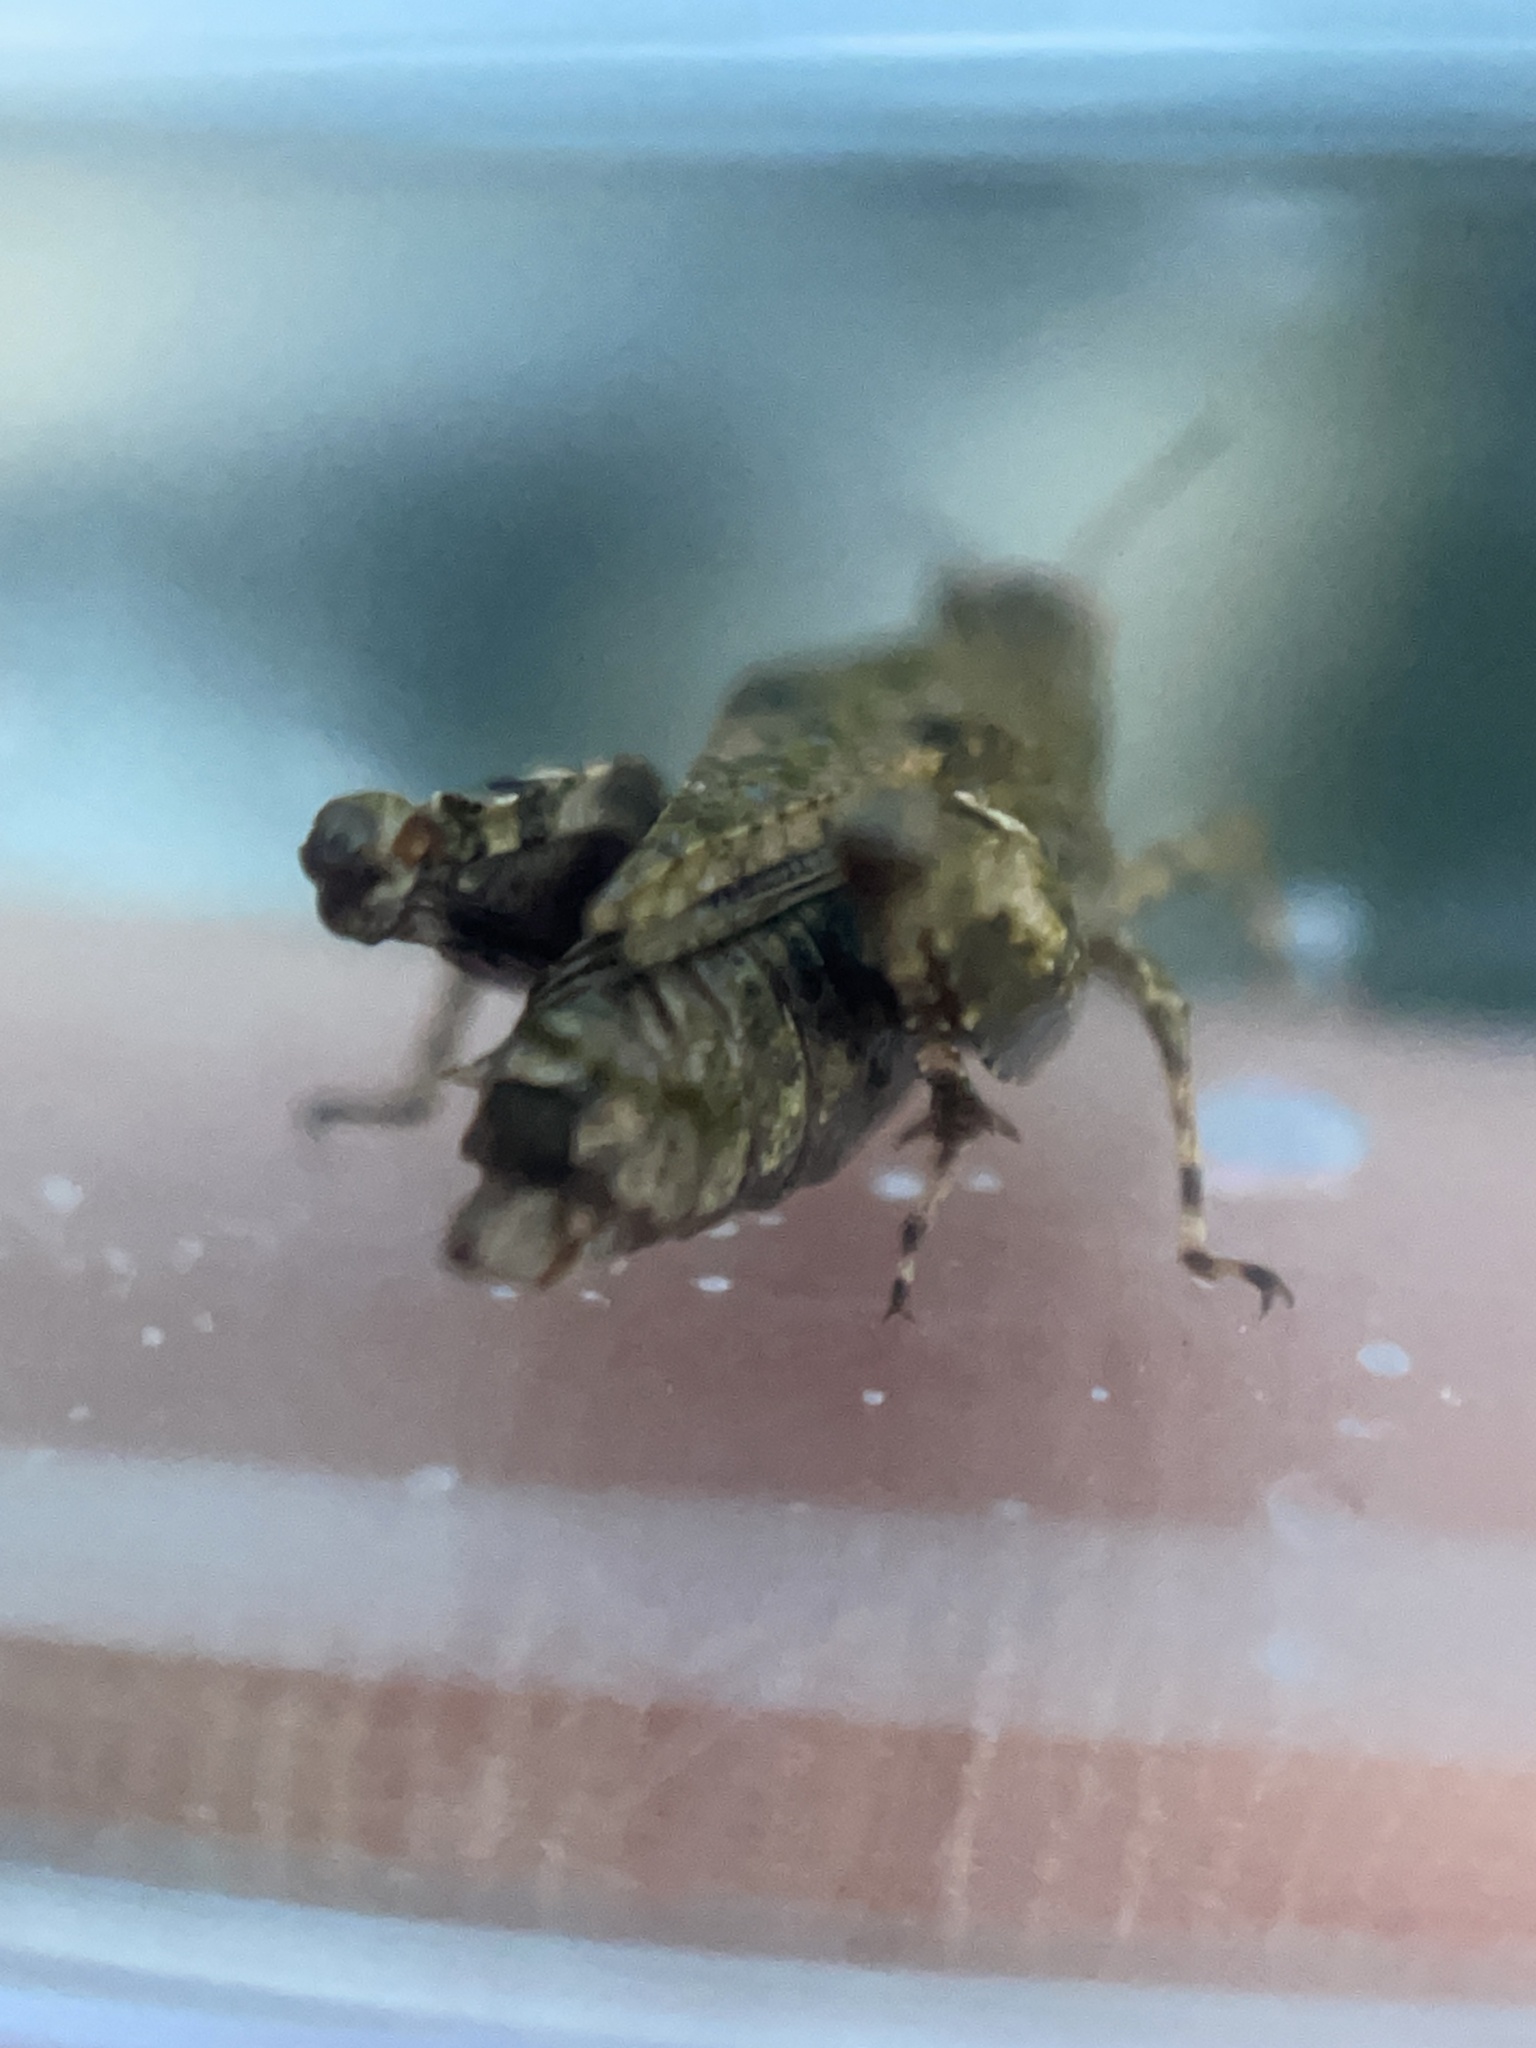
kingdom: Animalia
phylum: Arthropoda
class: Insecta
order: Orthoptera
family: Tetrigidae
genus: Paratettix
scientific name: Paratettix mexicanus
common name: Mexican pygmy grasshopper
